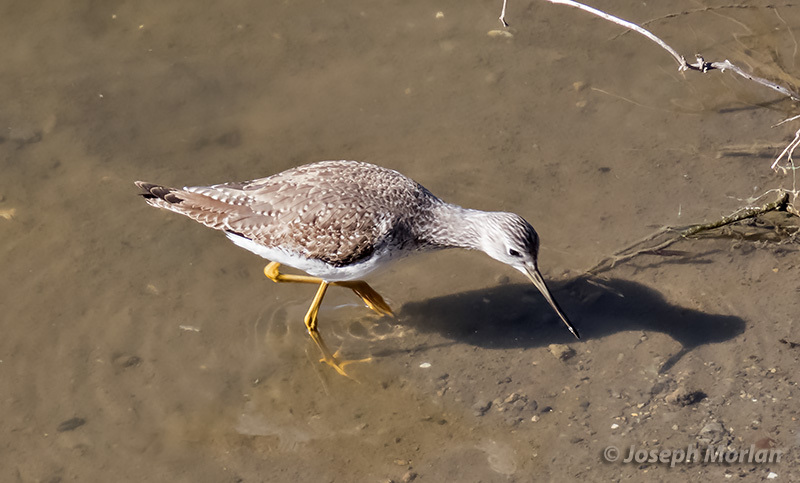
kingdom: Animalia
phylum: Chordata
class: Aves
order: Charadriiformes
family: Scolopacidae
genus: Tringa
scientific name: Tringa melanoleuca
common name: Greater yellowlegs
